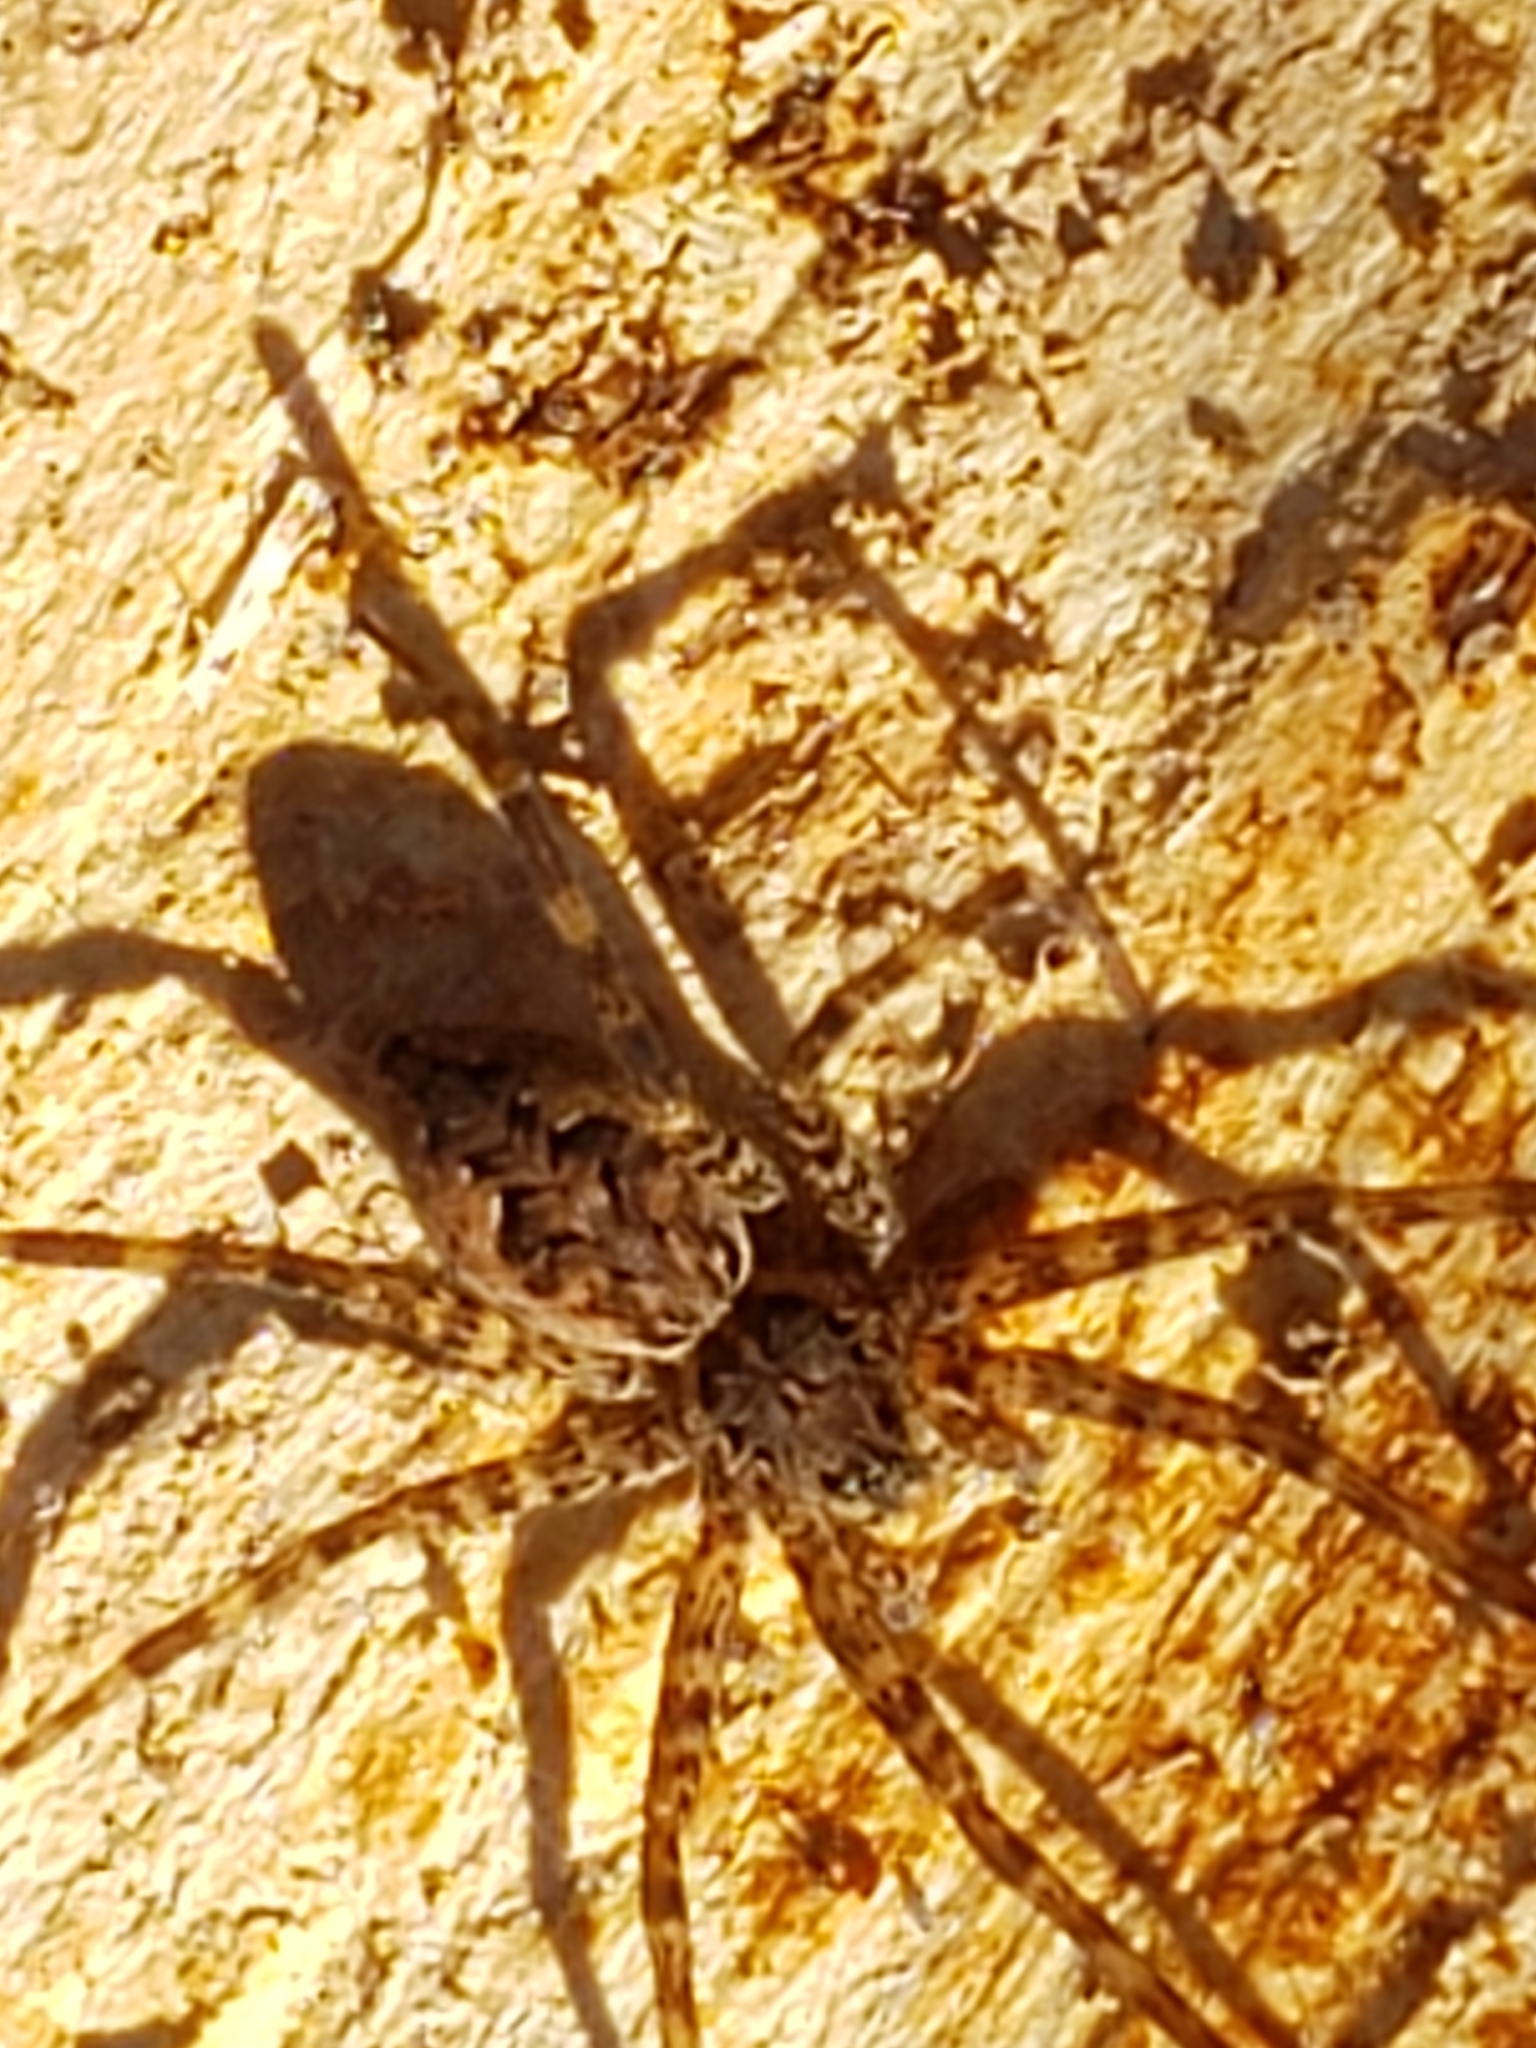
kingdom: Animalia
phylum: Arthropoda
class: Arachnida
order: Araneae
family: Pisauridae
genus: Dolomedes
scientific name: Dolomedes tenebrosus
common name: Dark fishing spider
